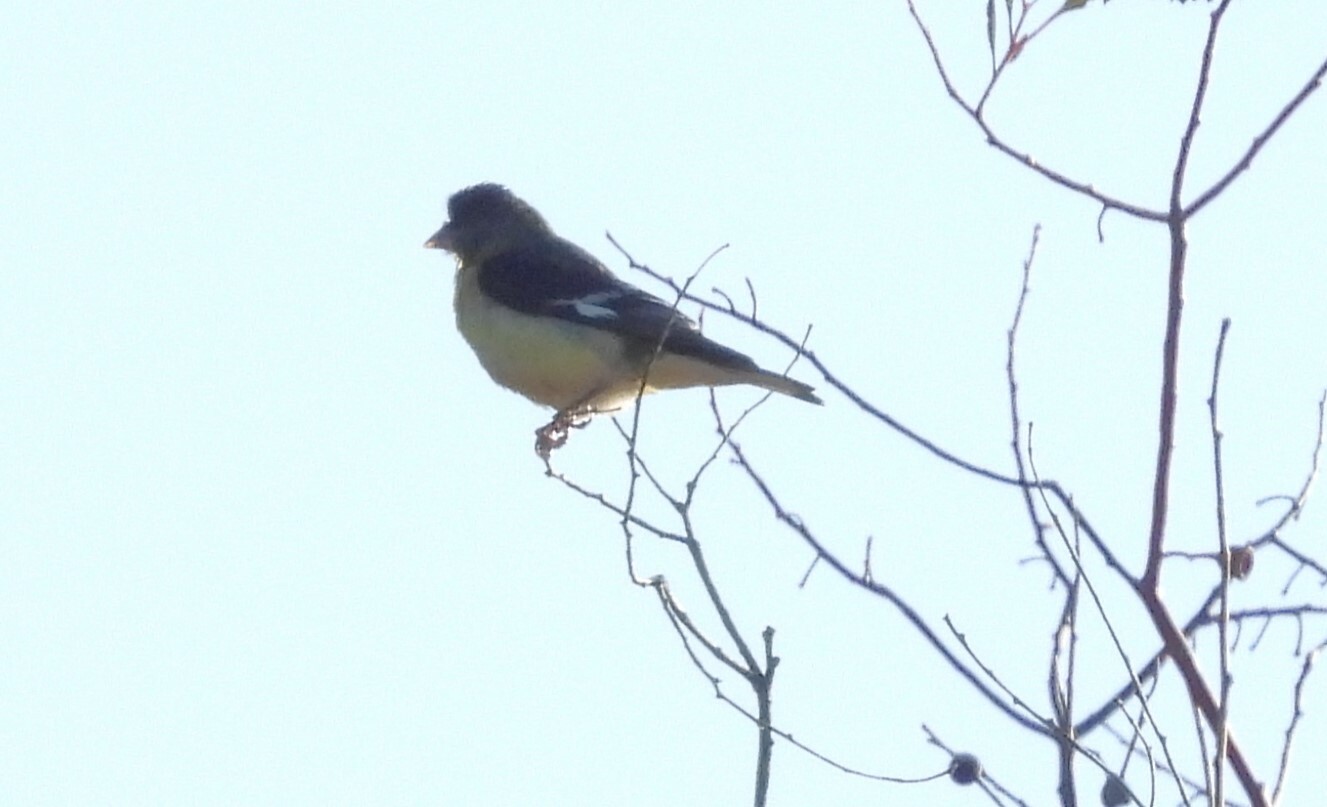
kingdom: Animalia
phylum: Chordata
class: Aves
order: Passeriformes
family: Fringillidae
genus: Spinus
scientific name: Spinus psaltria
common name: Lesser goldfinch
